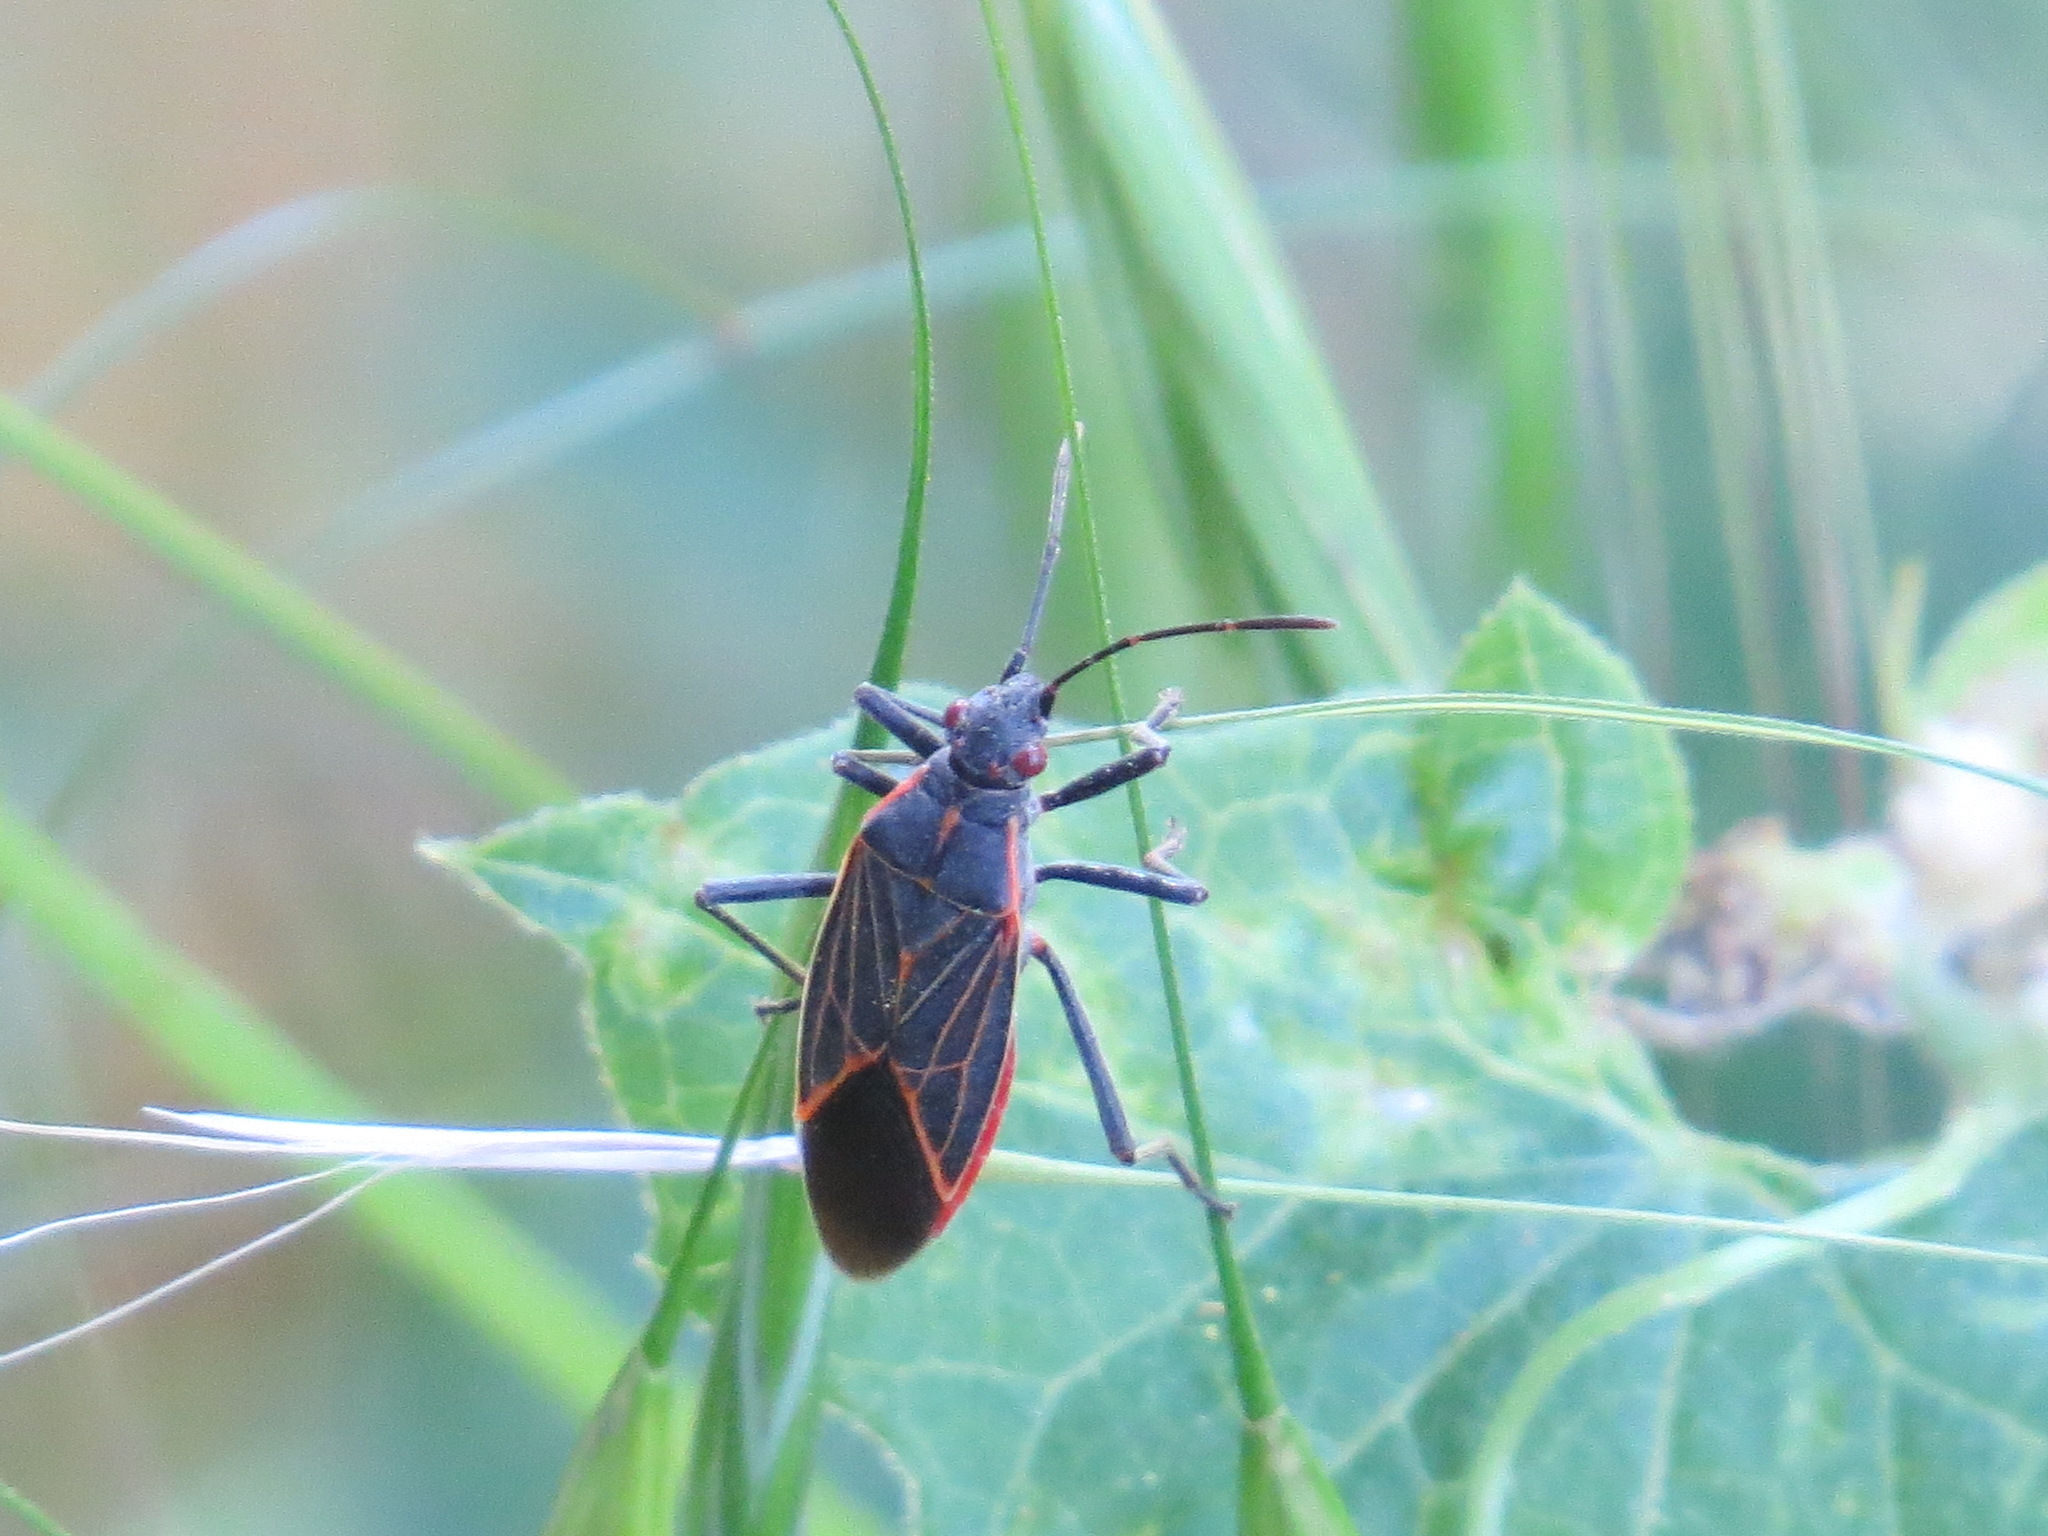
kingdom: Animalia
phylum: Arthropoda
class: Insecta
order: Hemiptera
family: Rhopalidae
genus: Boisea
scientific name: Boisea rubrolineata
